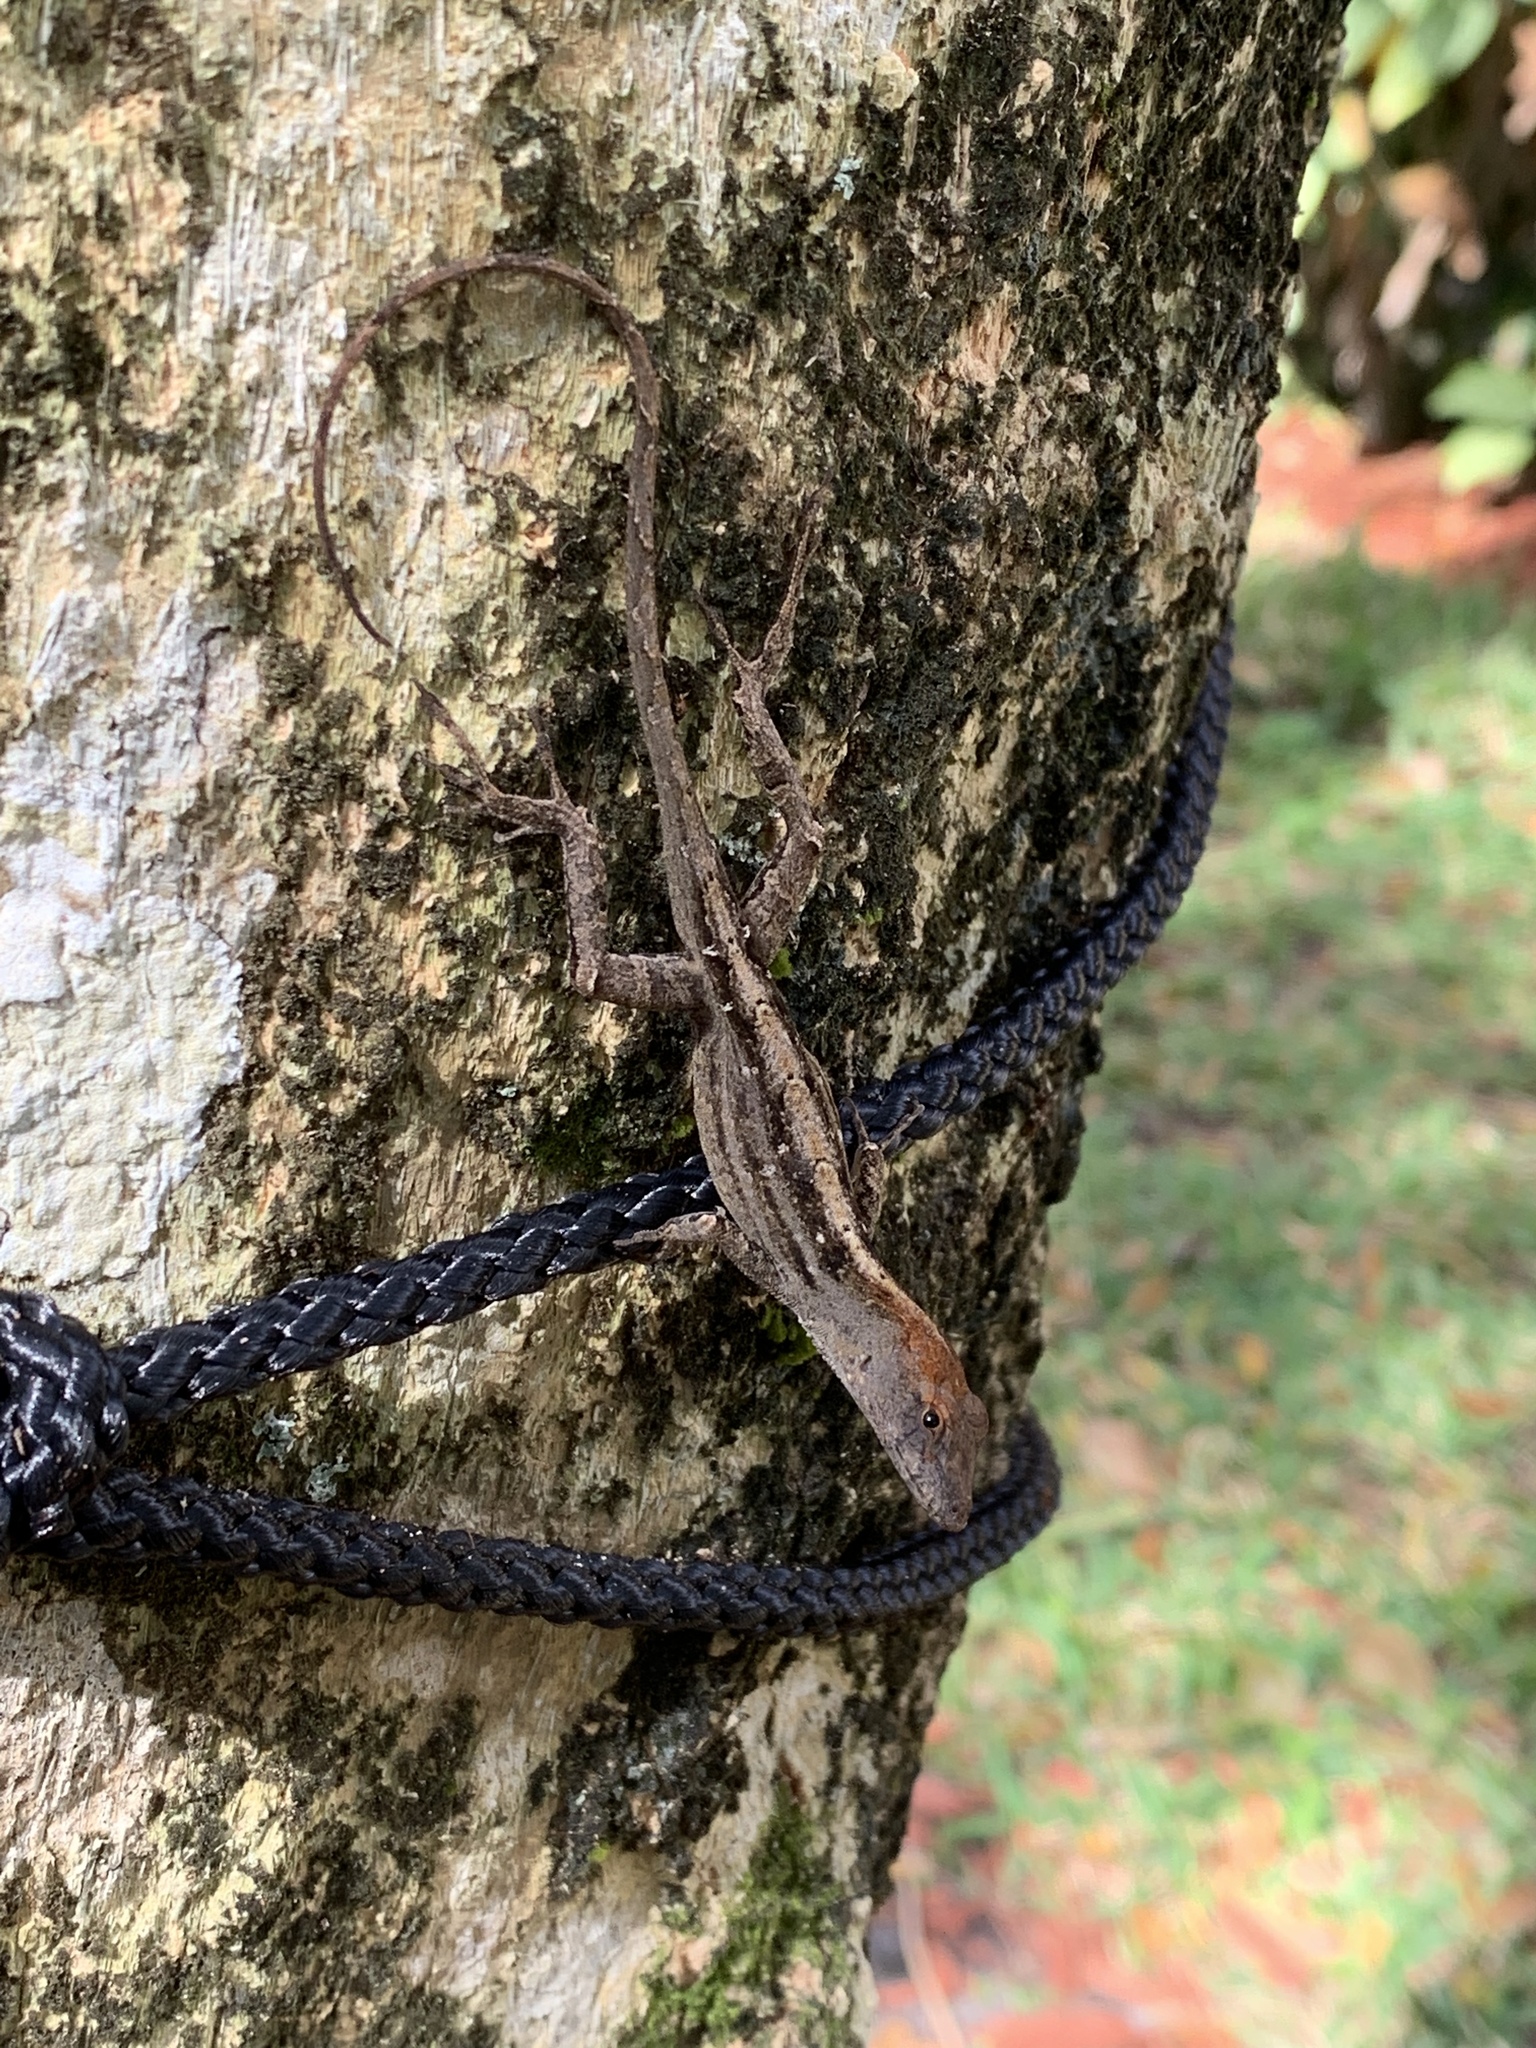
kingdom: Animalia
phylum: Chordata
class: Squamata
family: Dactyloidae
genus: Anolis
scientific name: Anolis sagrei
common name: Brown anole
